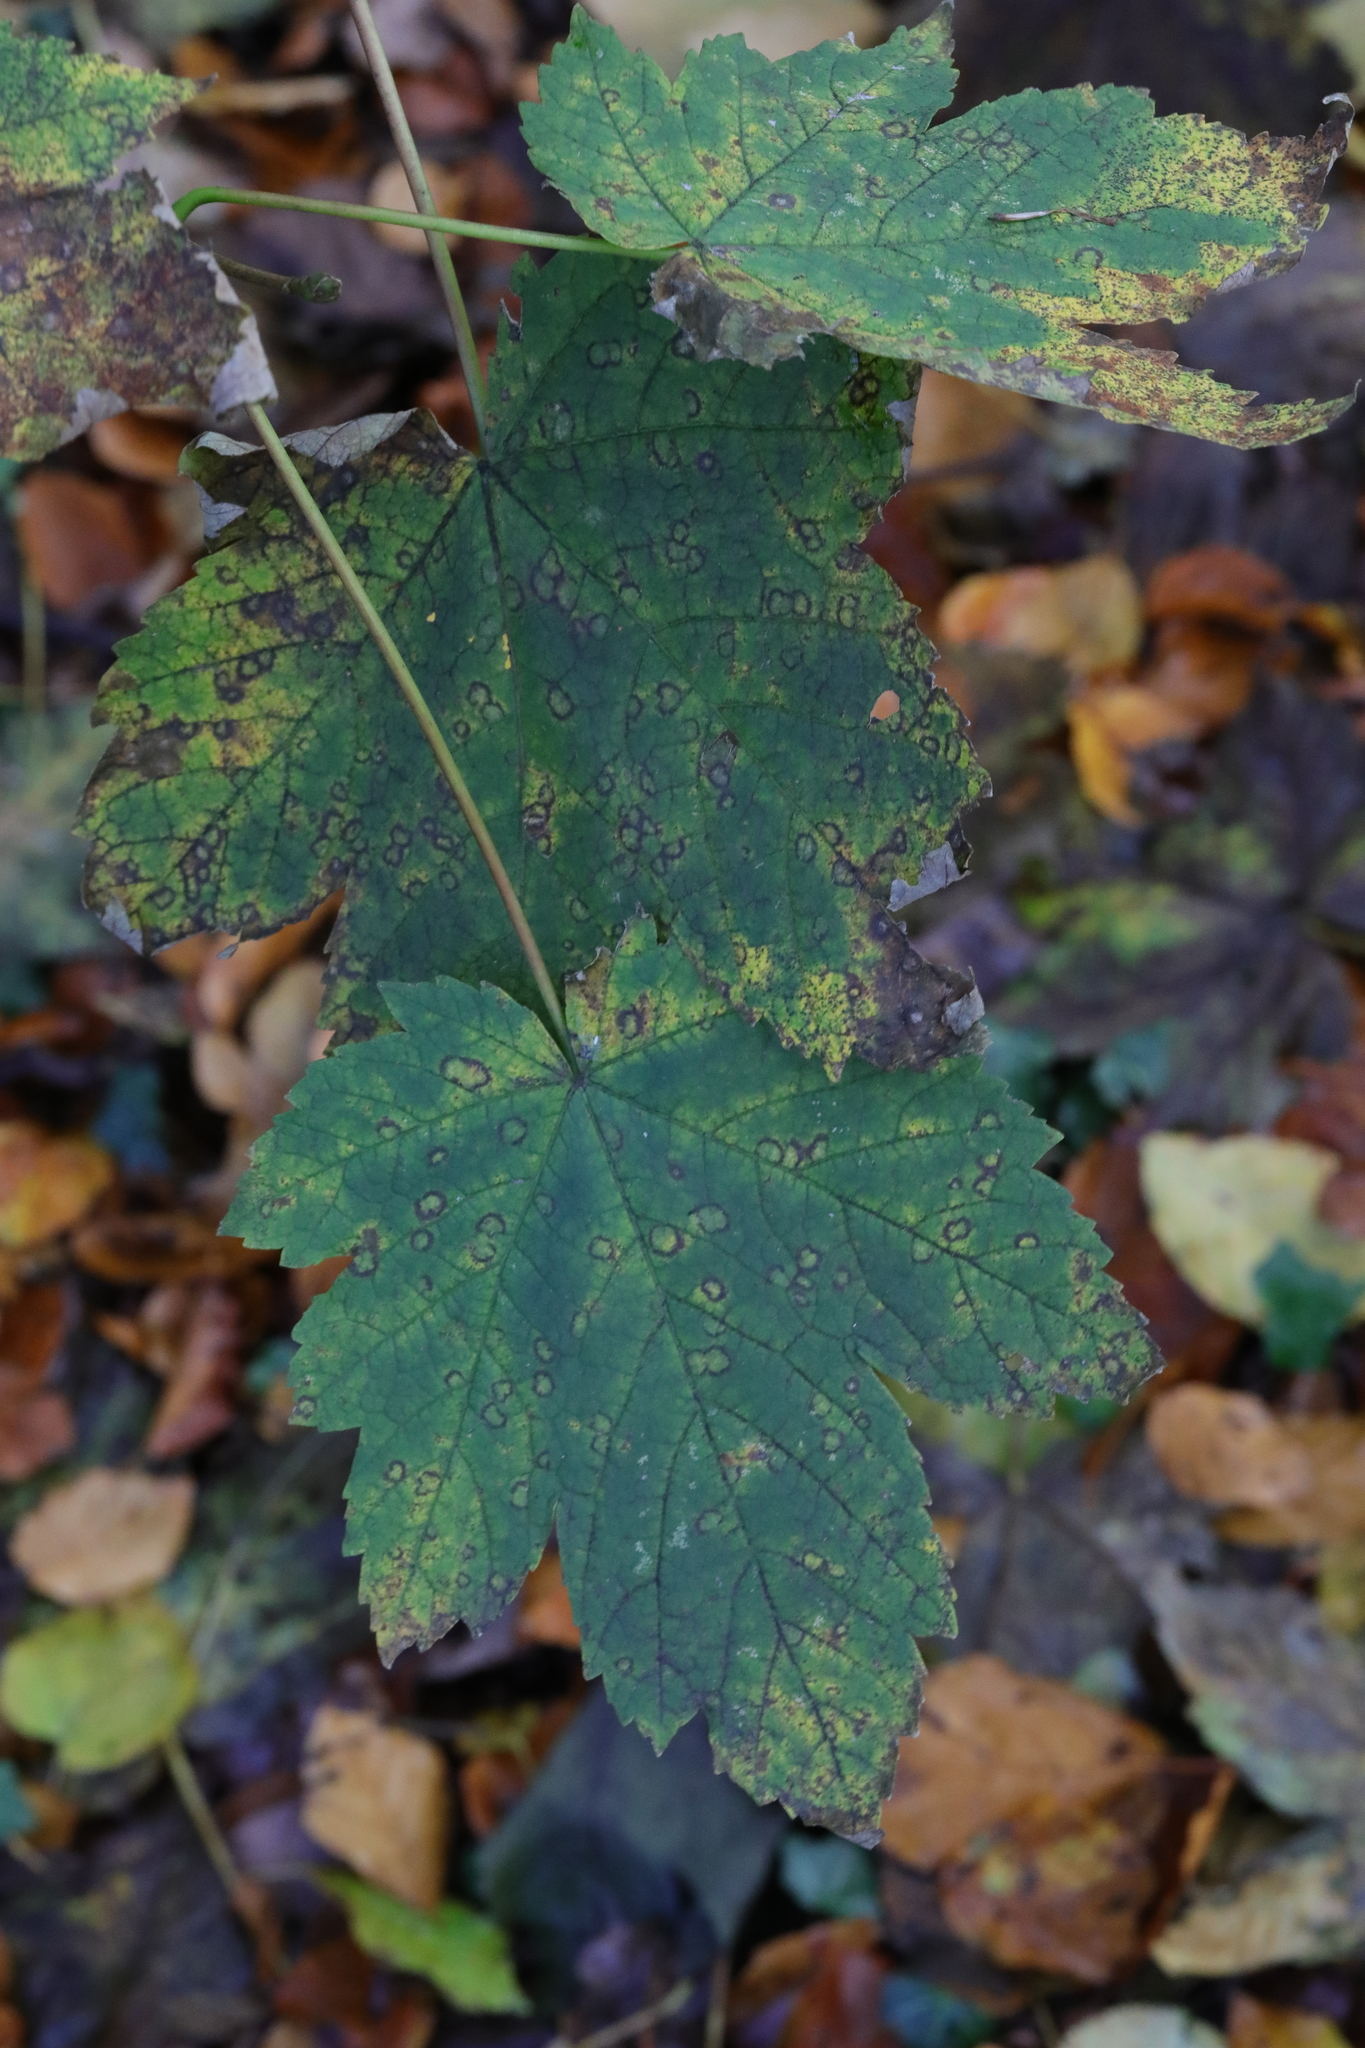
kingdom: Plantae
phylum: Tracheophyta
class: Magnoliopsida
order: Sapindales
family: Sapindaceae
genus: Acer
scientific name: Acer pseudoplatanus
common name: Sycamore
